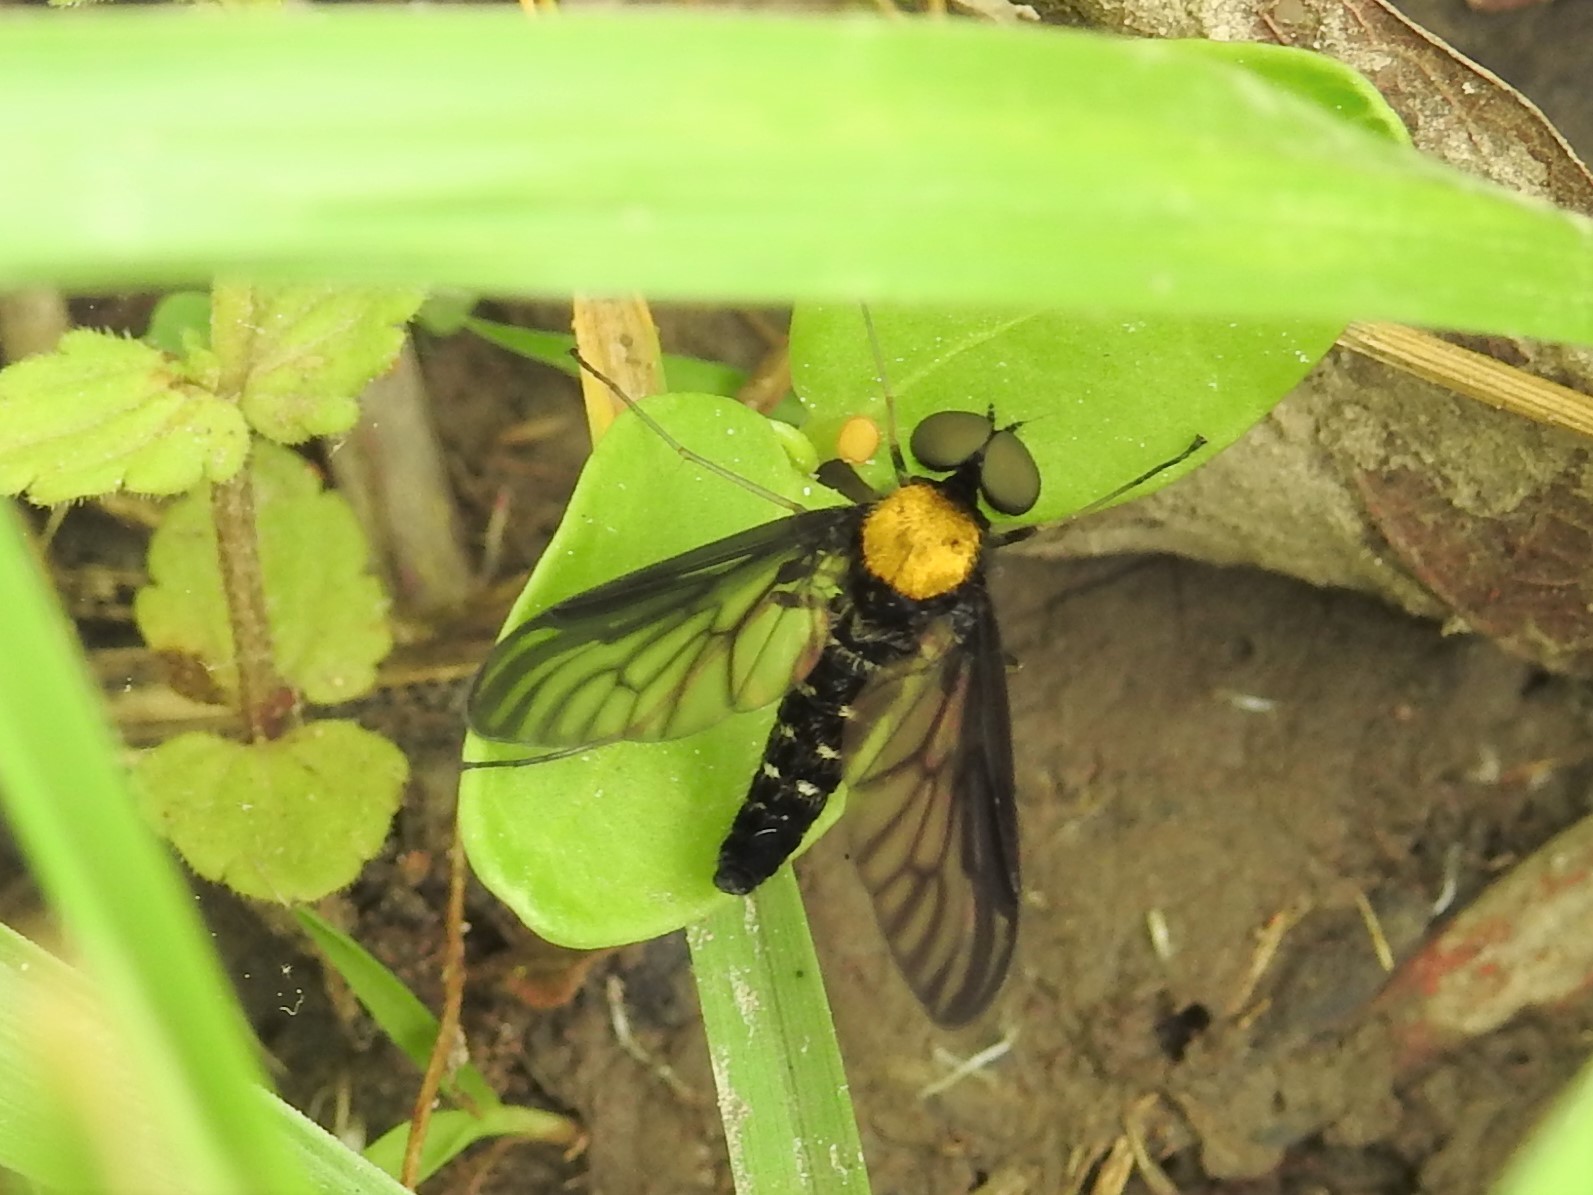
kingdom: Animalia
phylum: Arthropoda
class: Insecta
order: Diptera
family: Rhagionidae
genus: Chrysopilus
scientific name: Chrysopilus thoracicus
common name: Golden-backed snipe fly
